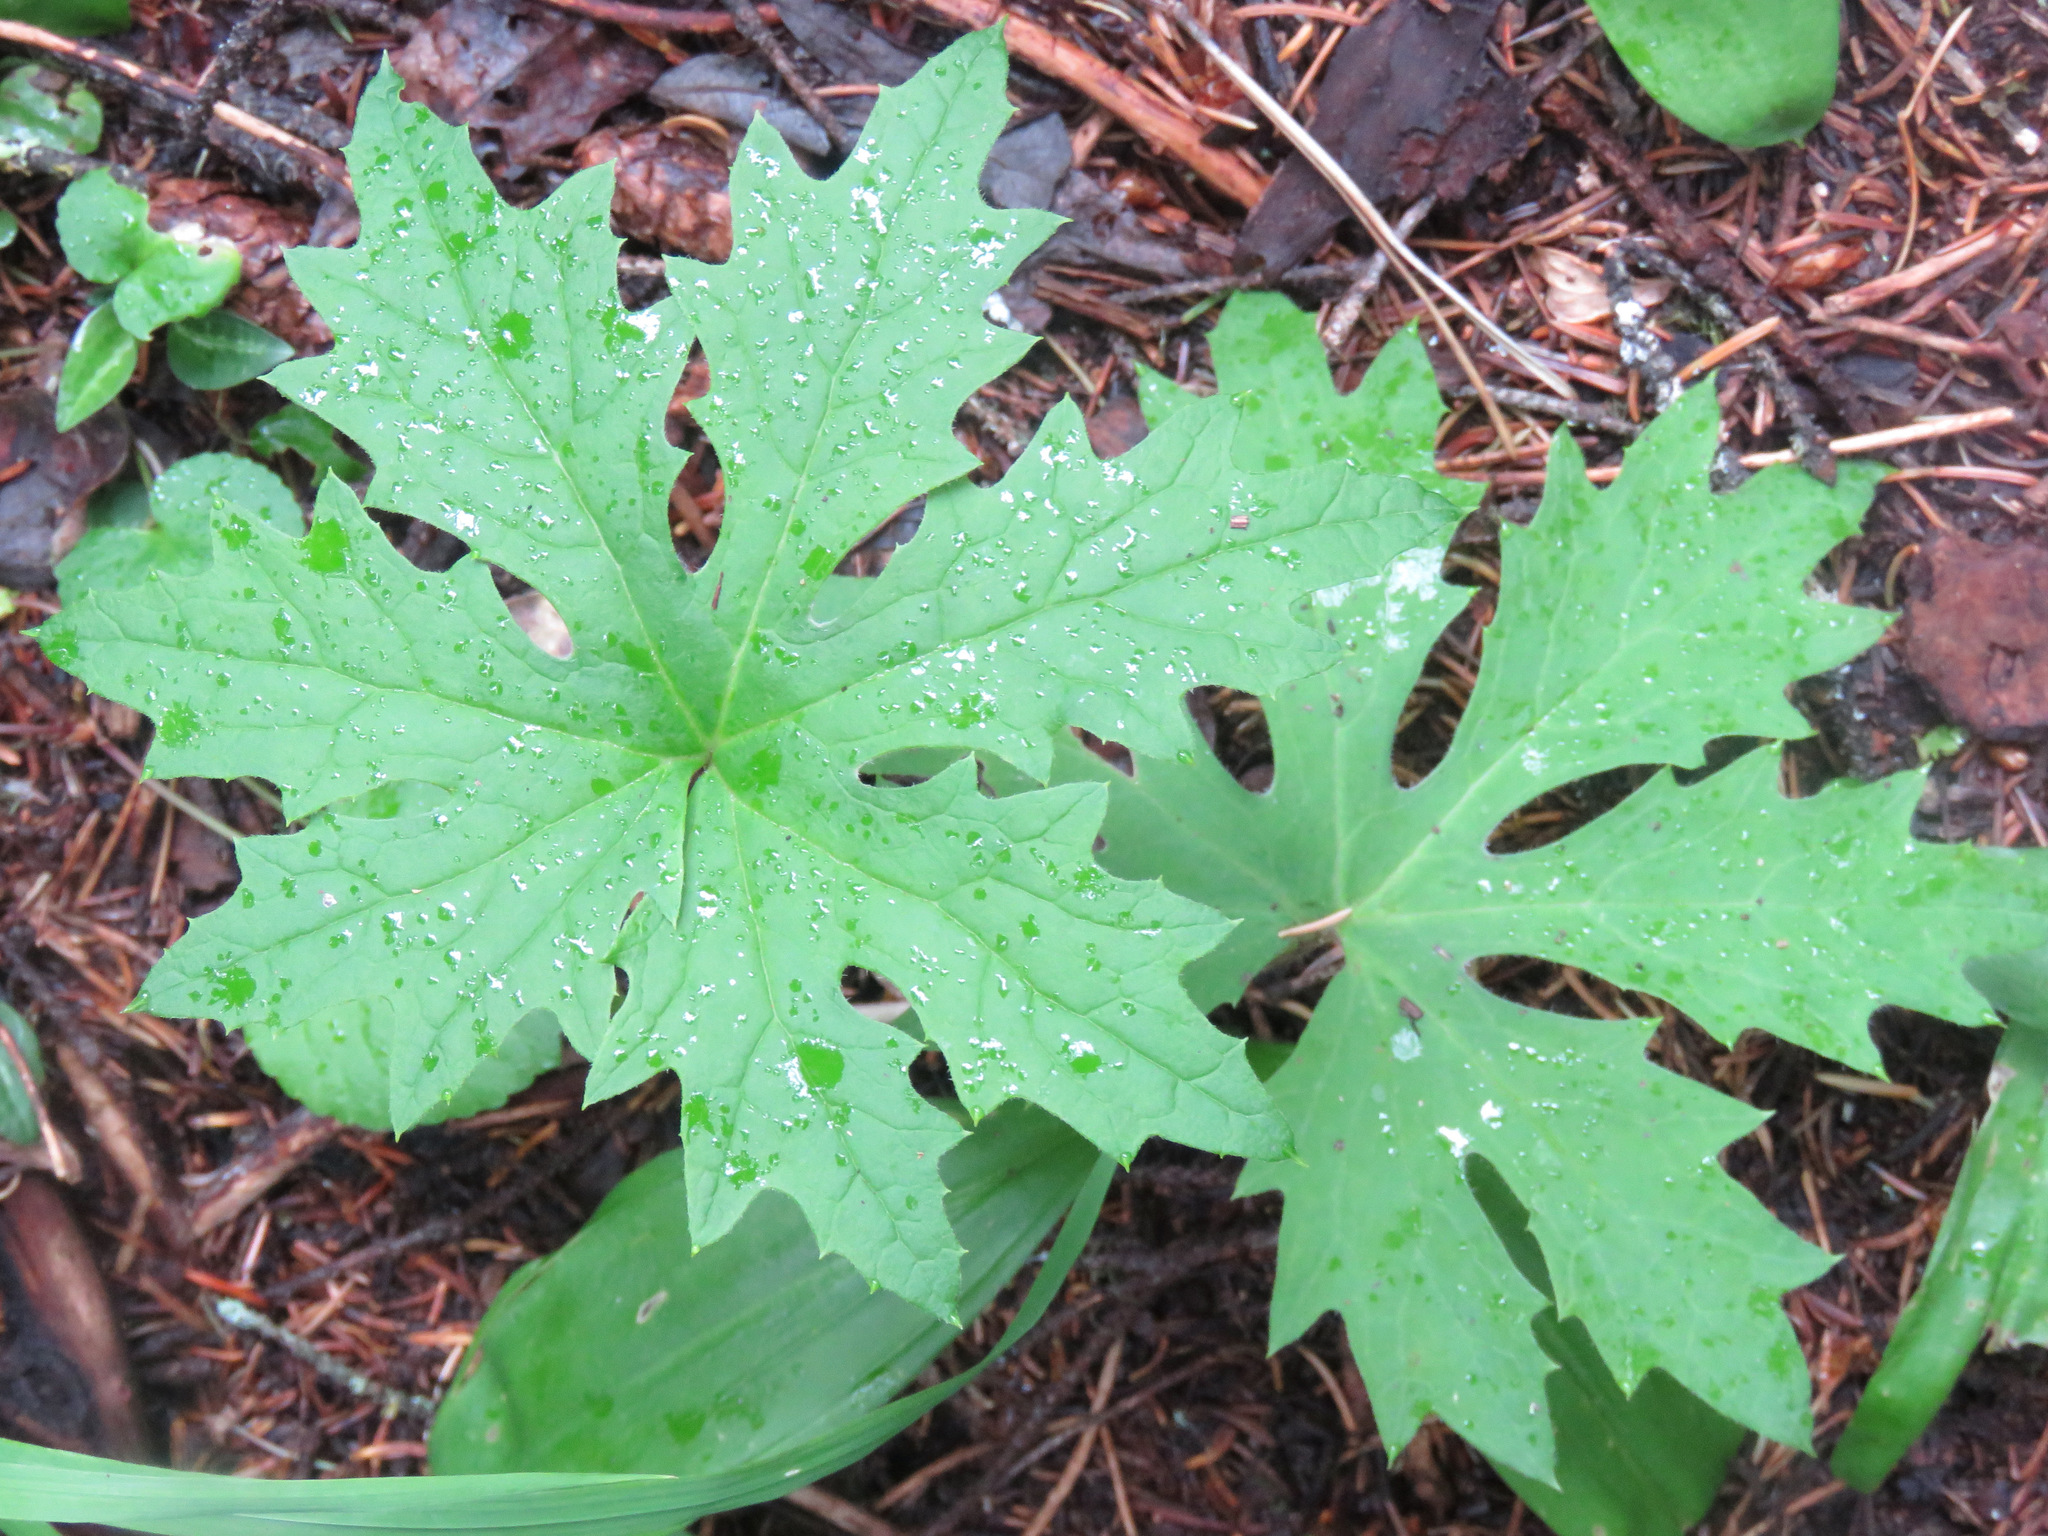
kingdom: Plantae
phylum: Tracheophyta
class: Magnoliopsida
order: Asterales
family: Asteraceae
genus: Petasites
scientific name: Petasites frigidus
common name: Arctic butterbur
